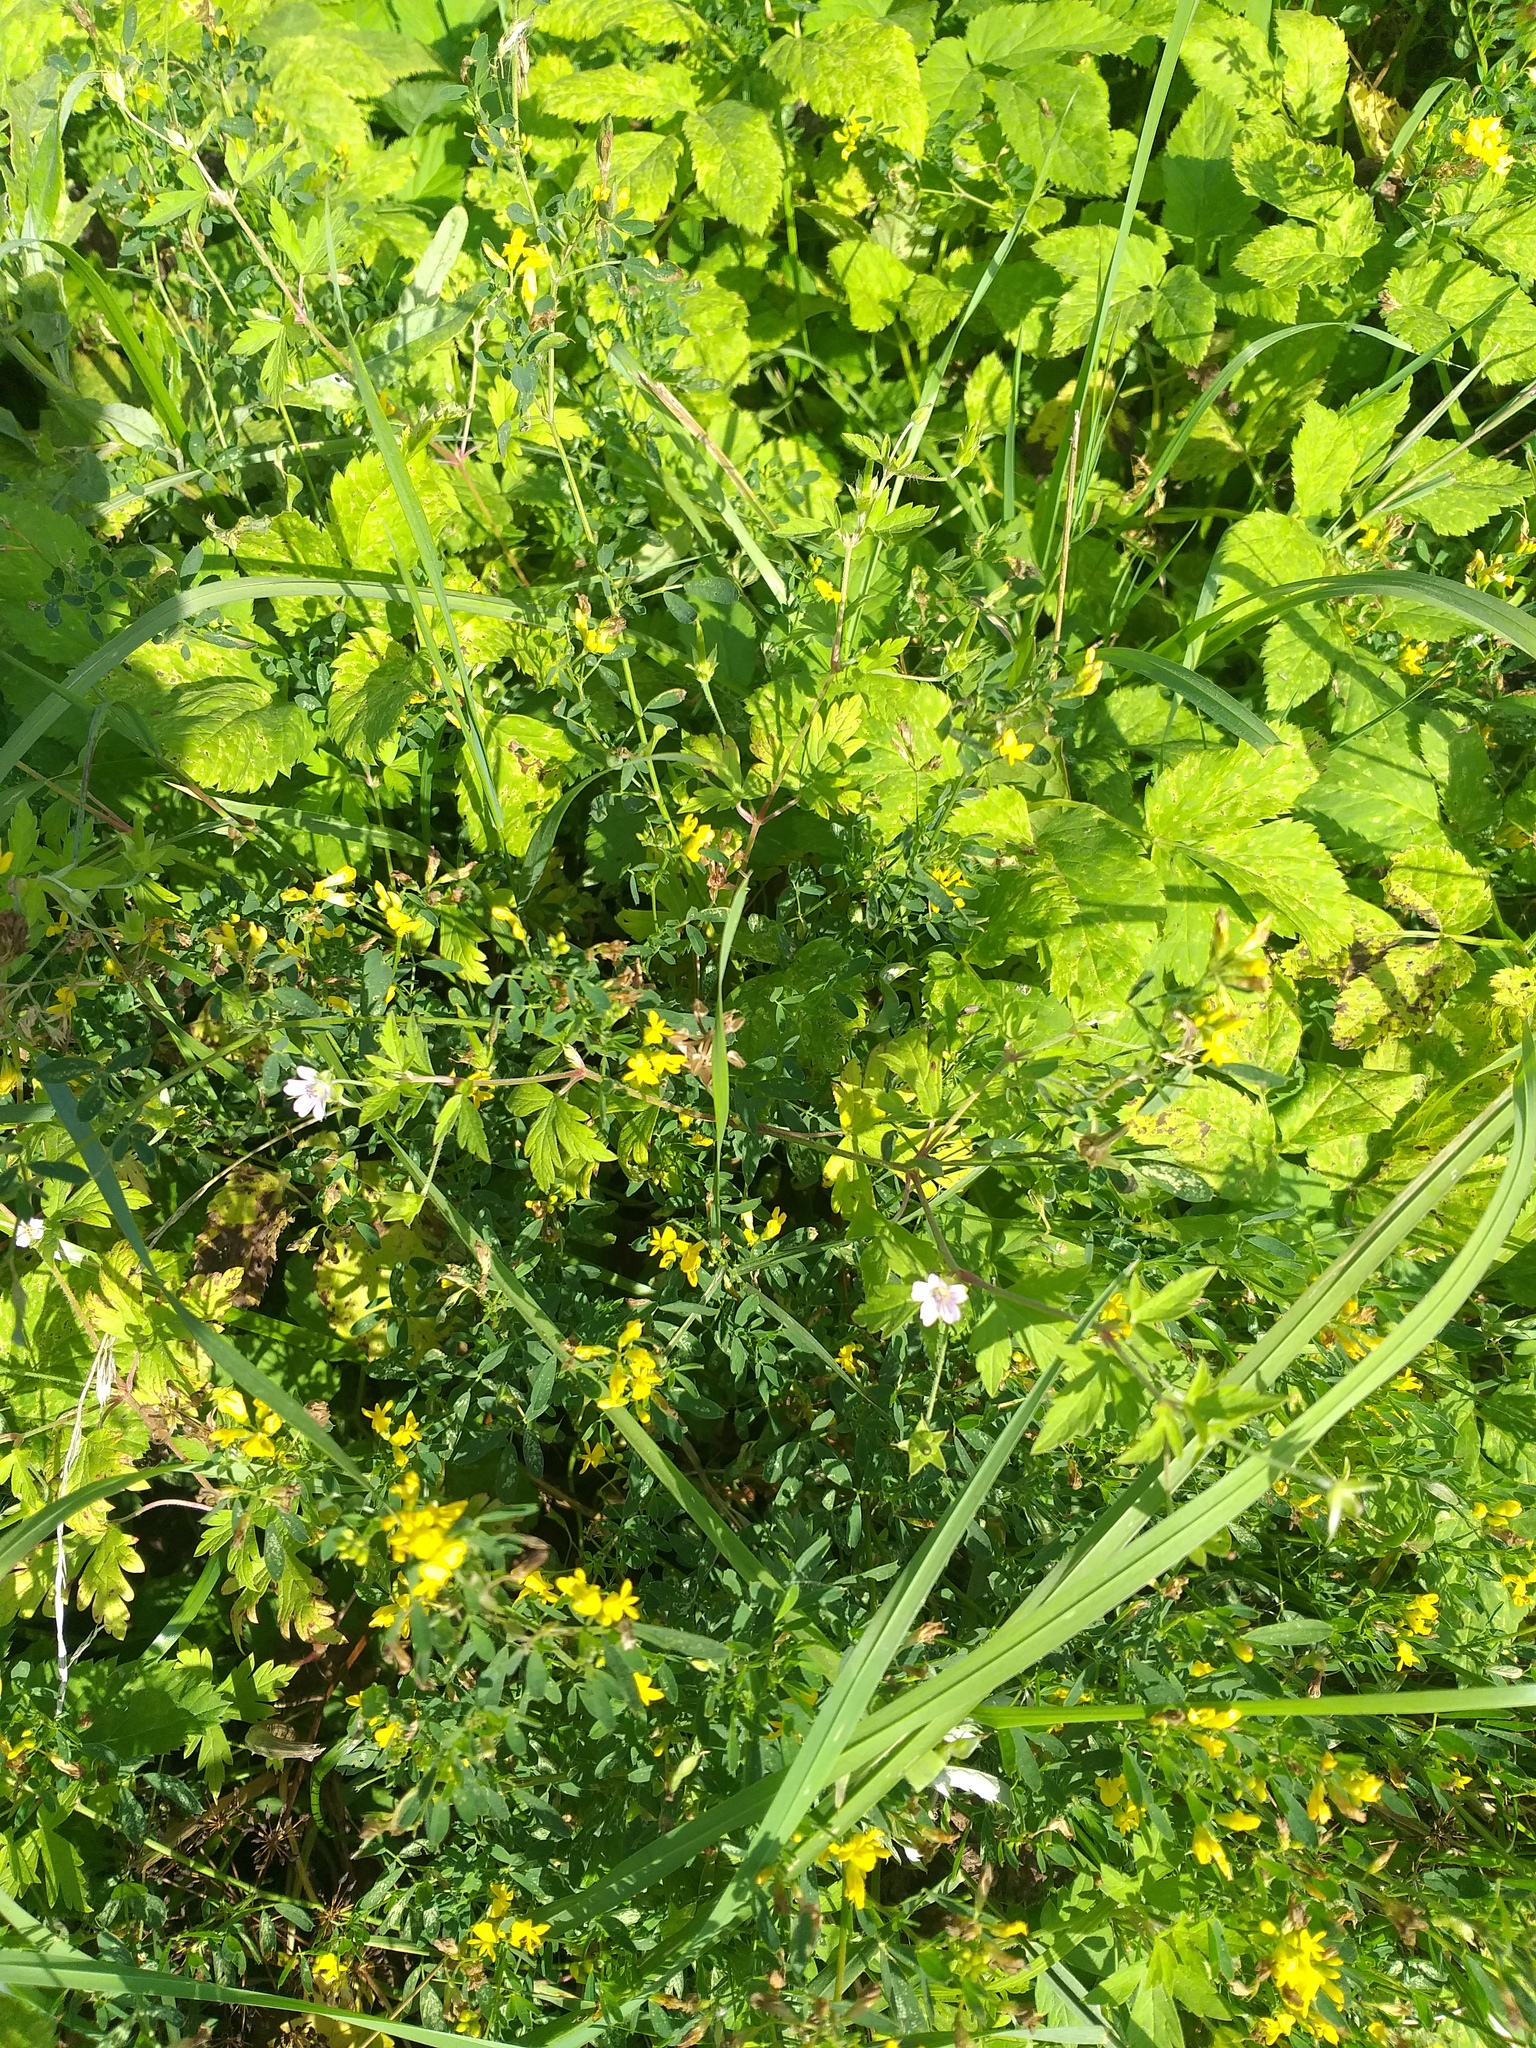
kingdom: Plantae
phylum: Tracheophyta
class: Magnoliopsida
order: Geraniales
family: Geraniaceae
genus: Geranium
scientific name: Geranium sibiricum
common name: Siberian crane's-bill
